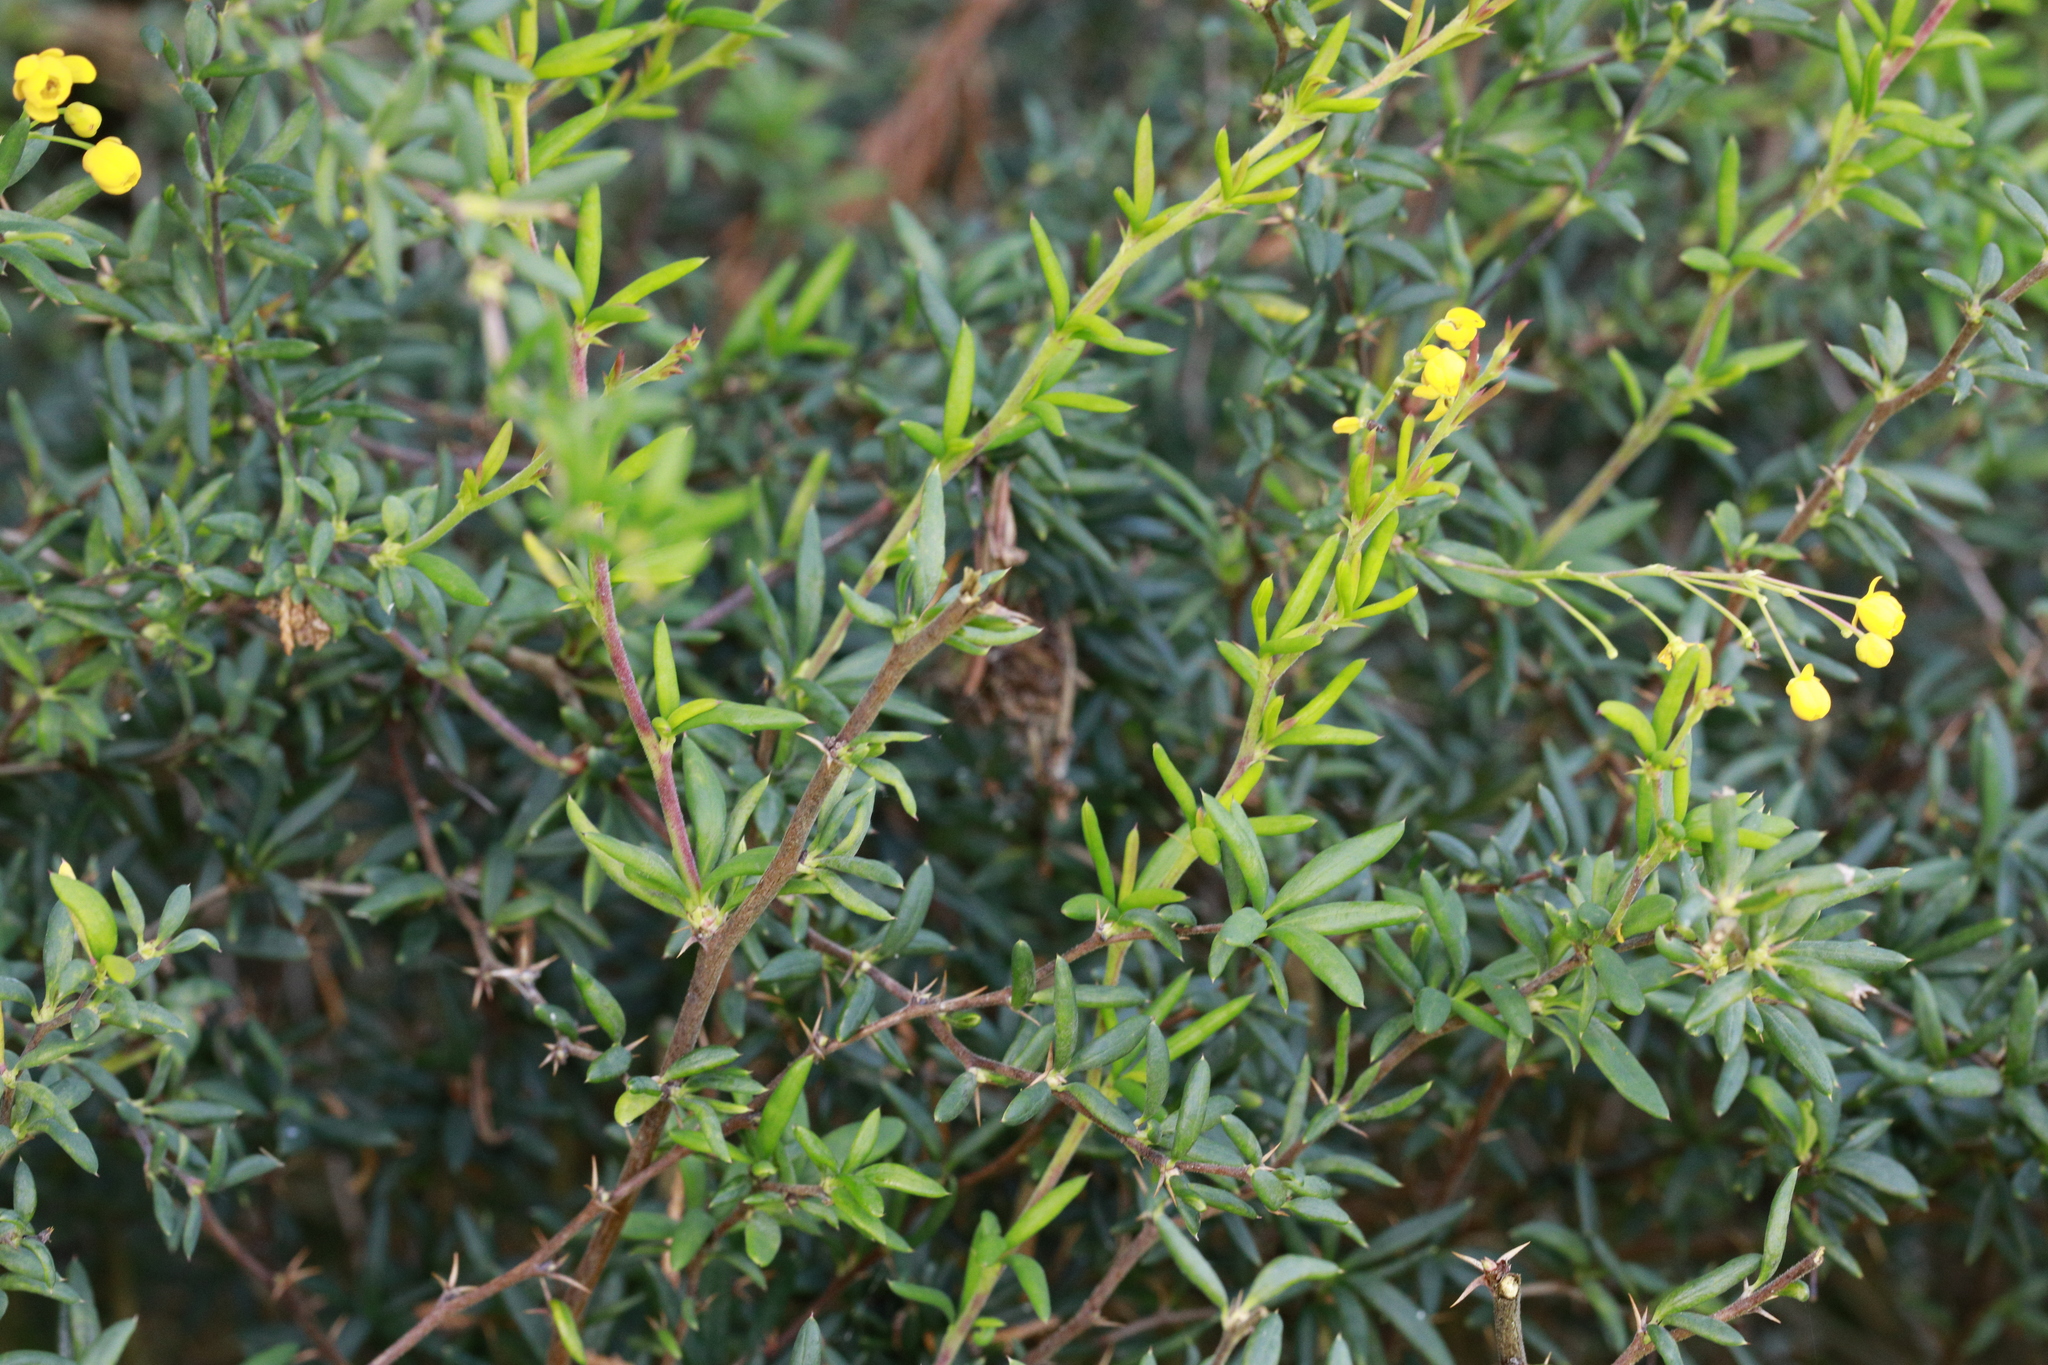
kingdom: Plantae
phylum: Tracheophyta
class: Magnoliopsida
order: Ranunculales
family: Berberidaceae
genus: Berberis
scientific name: Berberis stenophylla
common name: Hedge barberry
